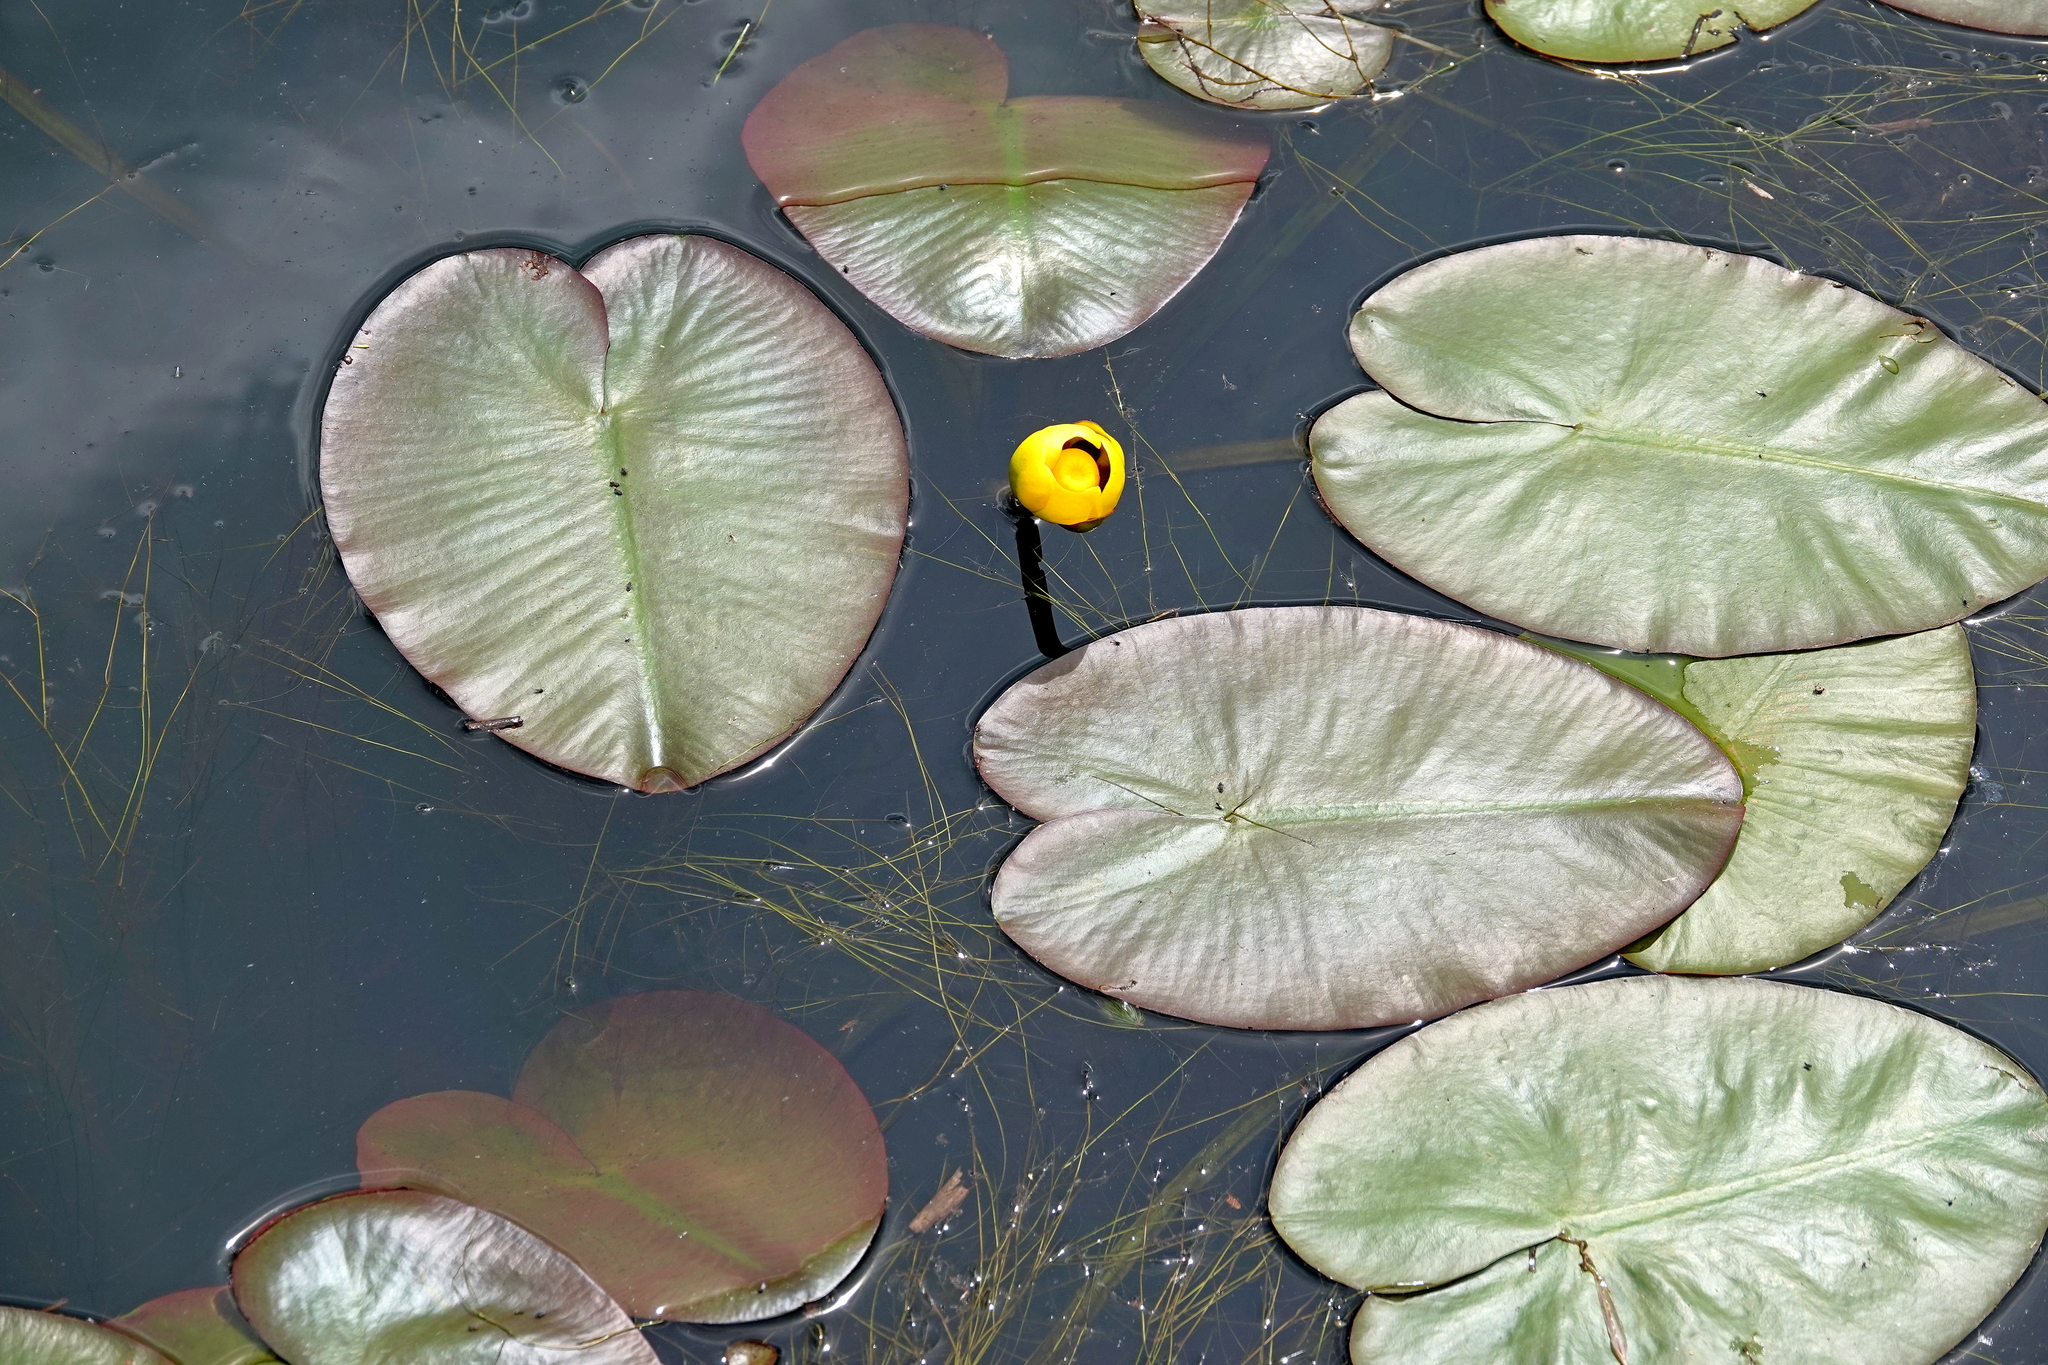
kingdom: Plantae
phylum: Tracheophyta
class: Magnoliopsida
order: Nymphaeales
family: Nymphaeaceae
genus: Nuphar
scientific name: Nuphar variegata
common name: Beaver-root
